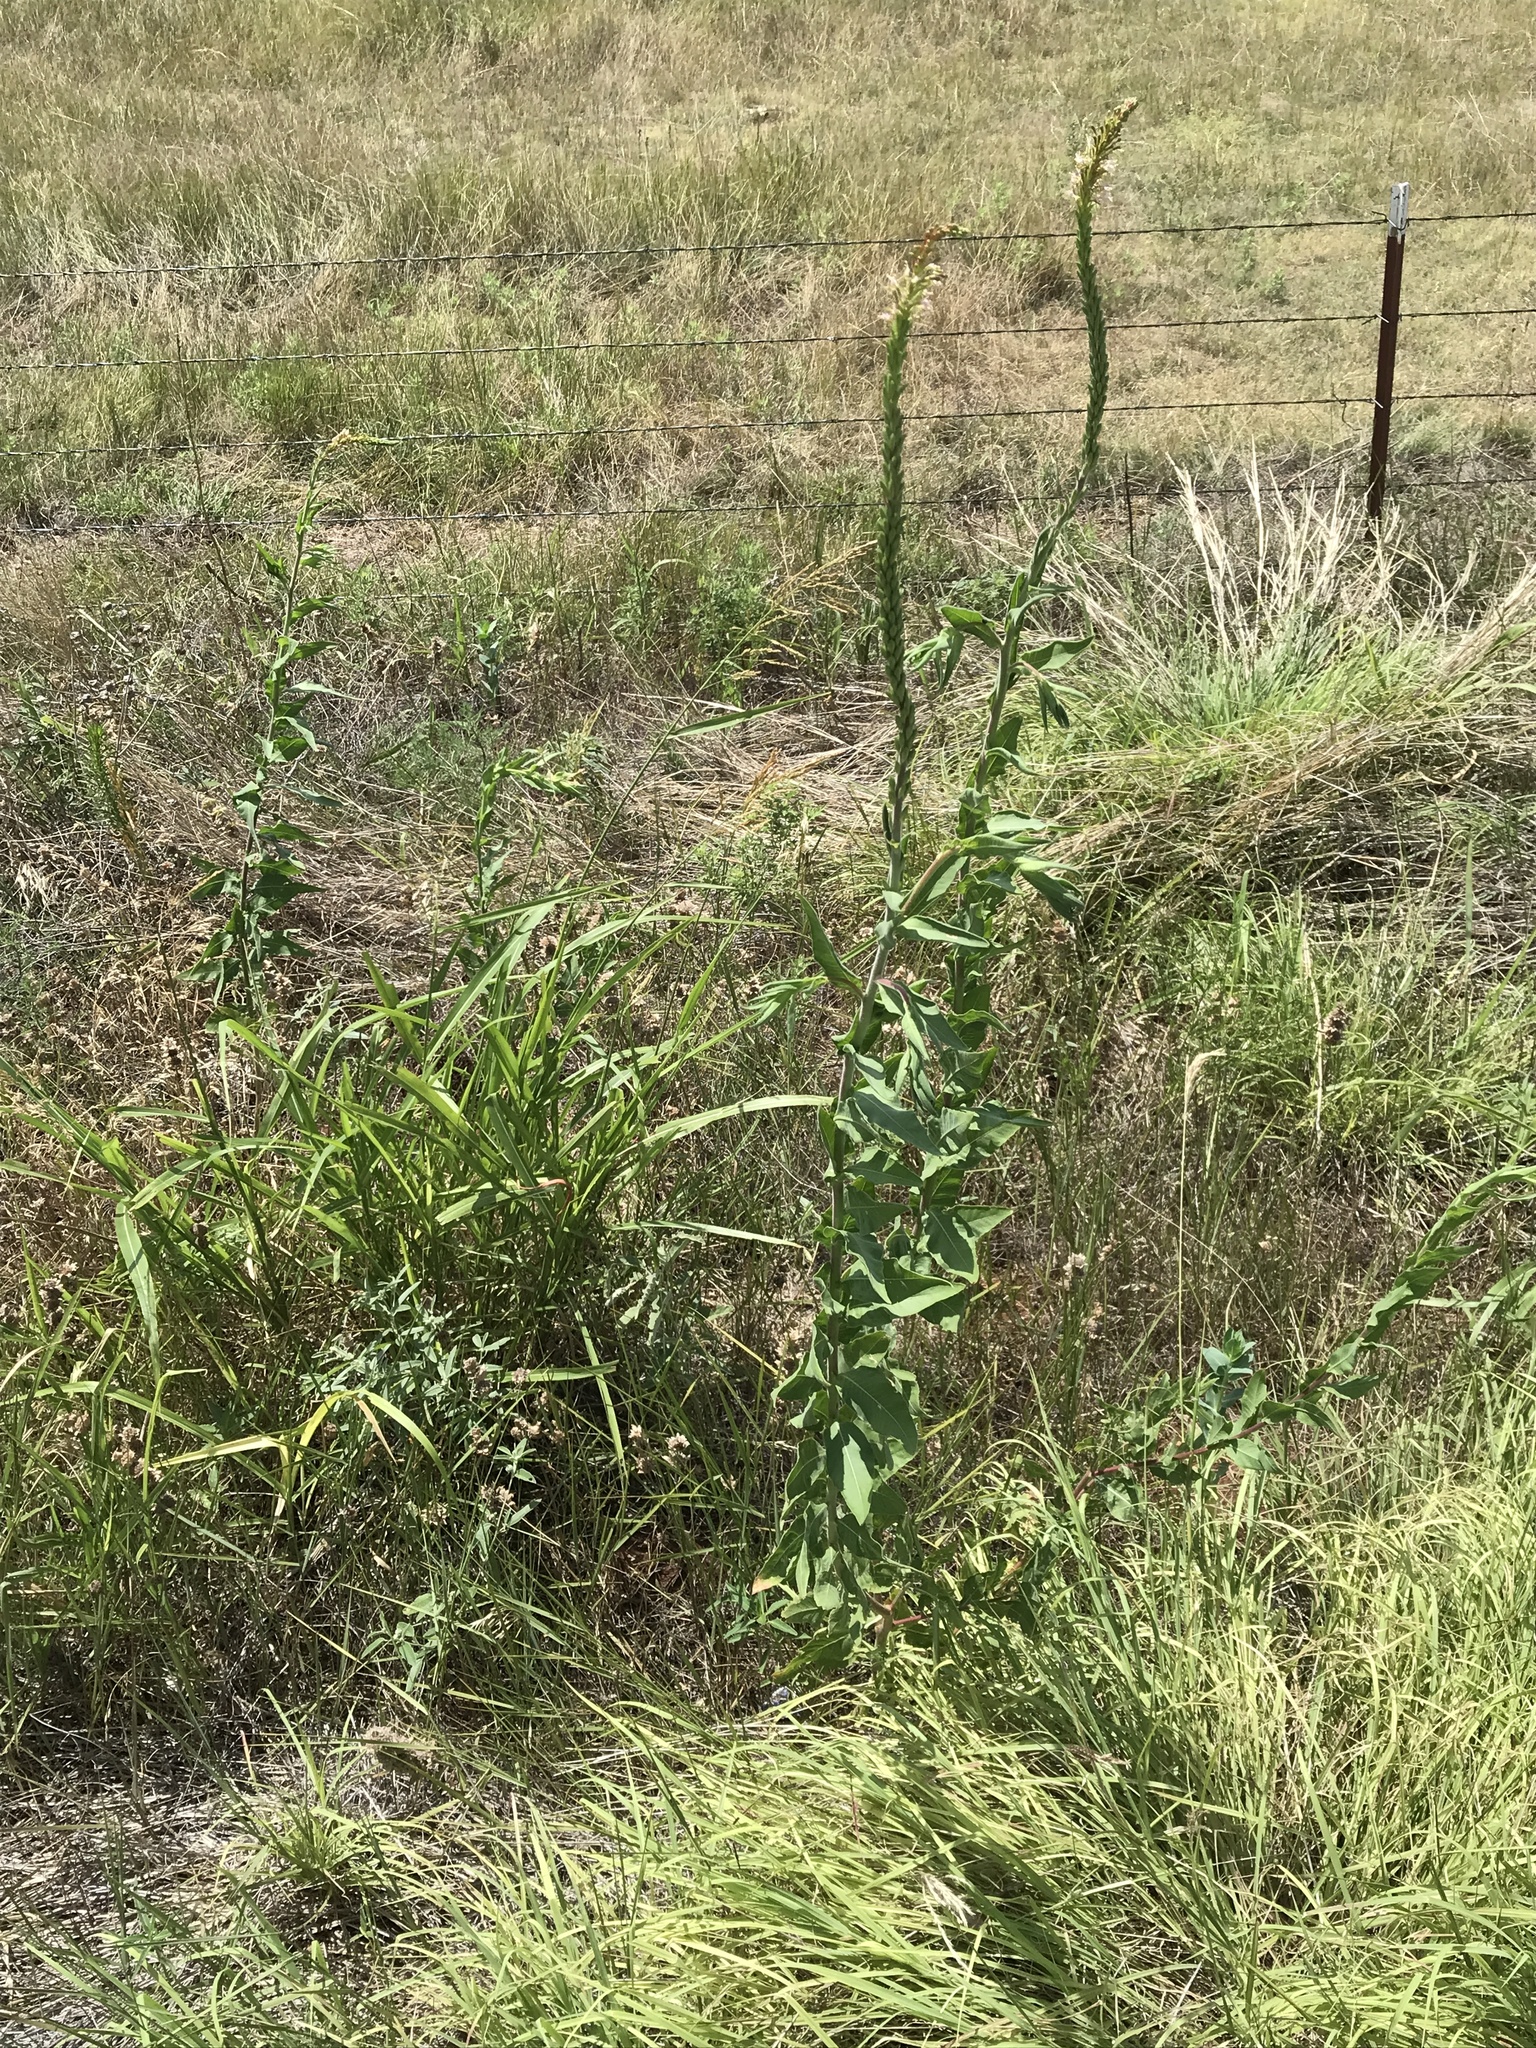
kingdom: Plantae
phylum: Tracheophyta
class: Magnoliopsida
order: Myrtales
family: Onagraceae
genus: Oenothera
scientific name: Oenothera curtiflora
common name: Velvetweed
